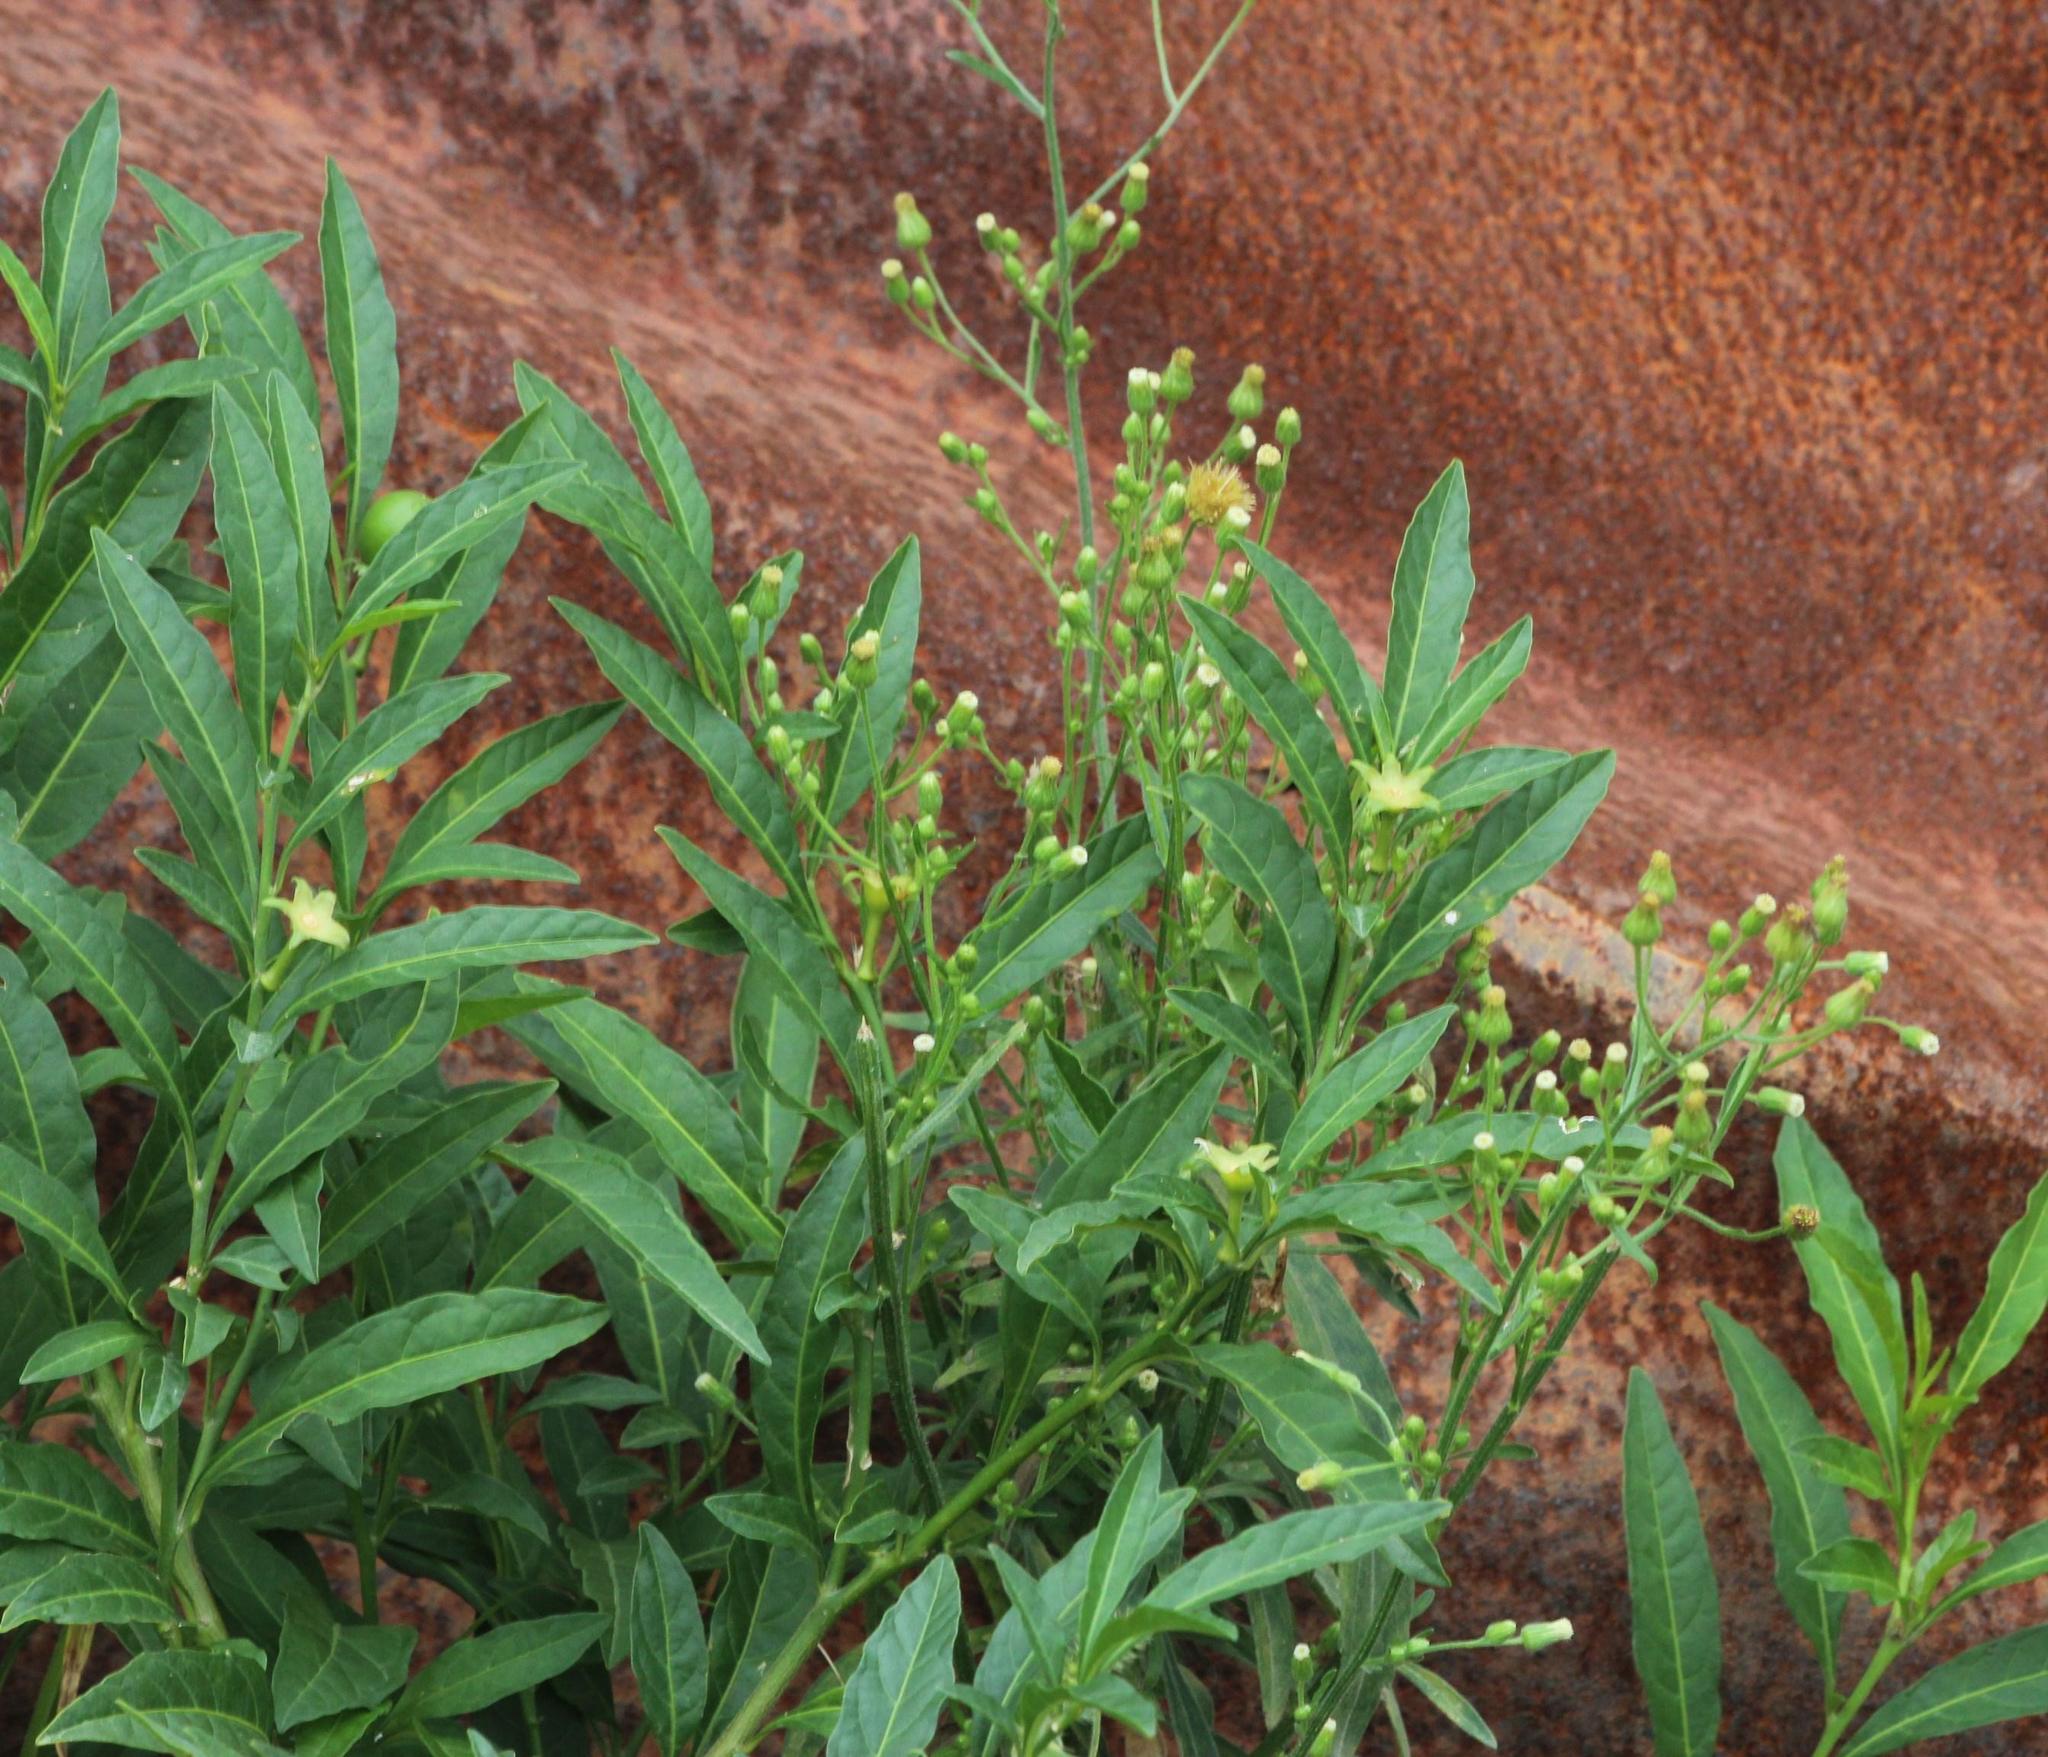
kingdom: Plantae
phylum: Tracheophyta
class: Magnoliopsida
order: Asterales
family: Asteraceae
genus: Erigeron
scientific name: Erigeron bonariensis
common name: Argentine fleabane
